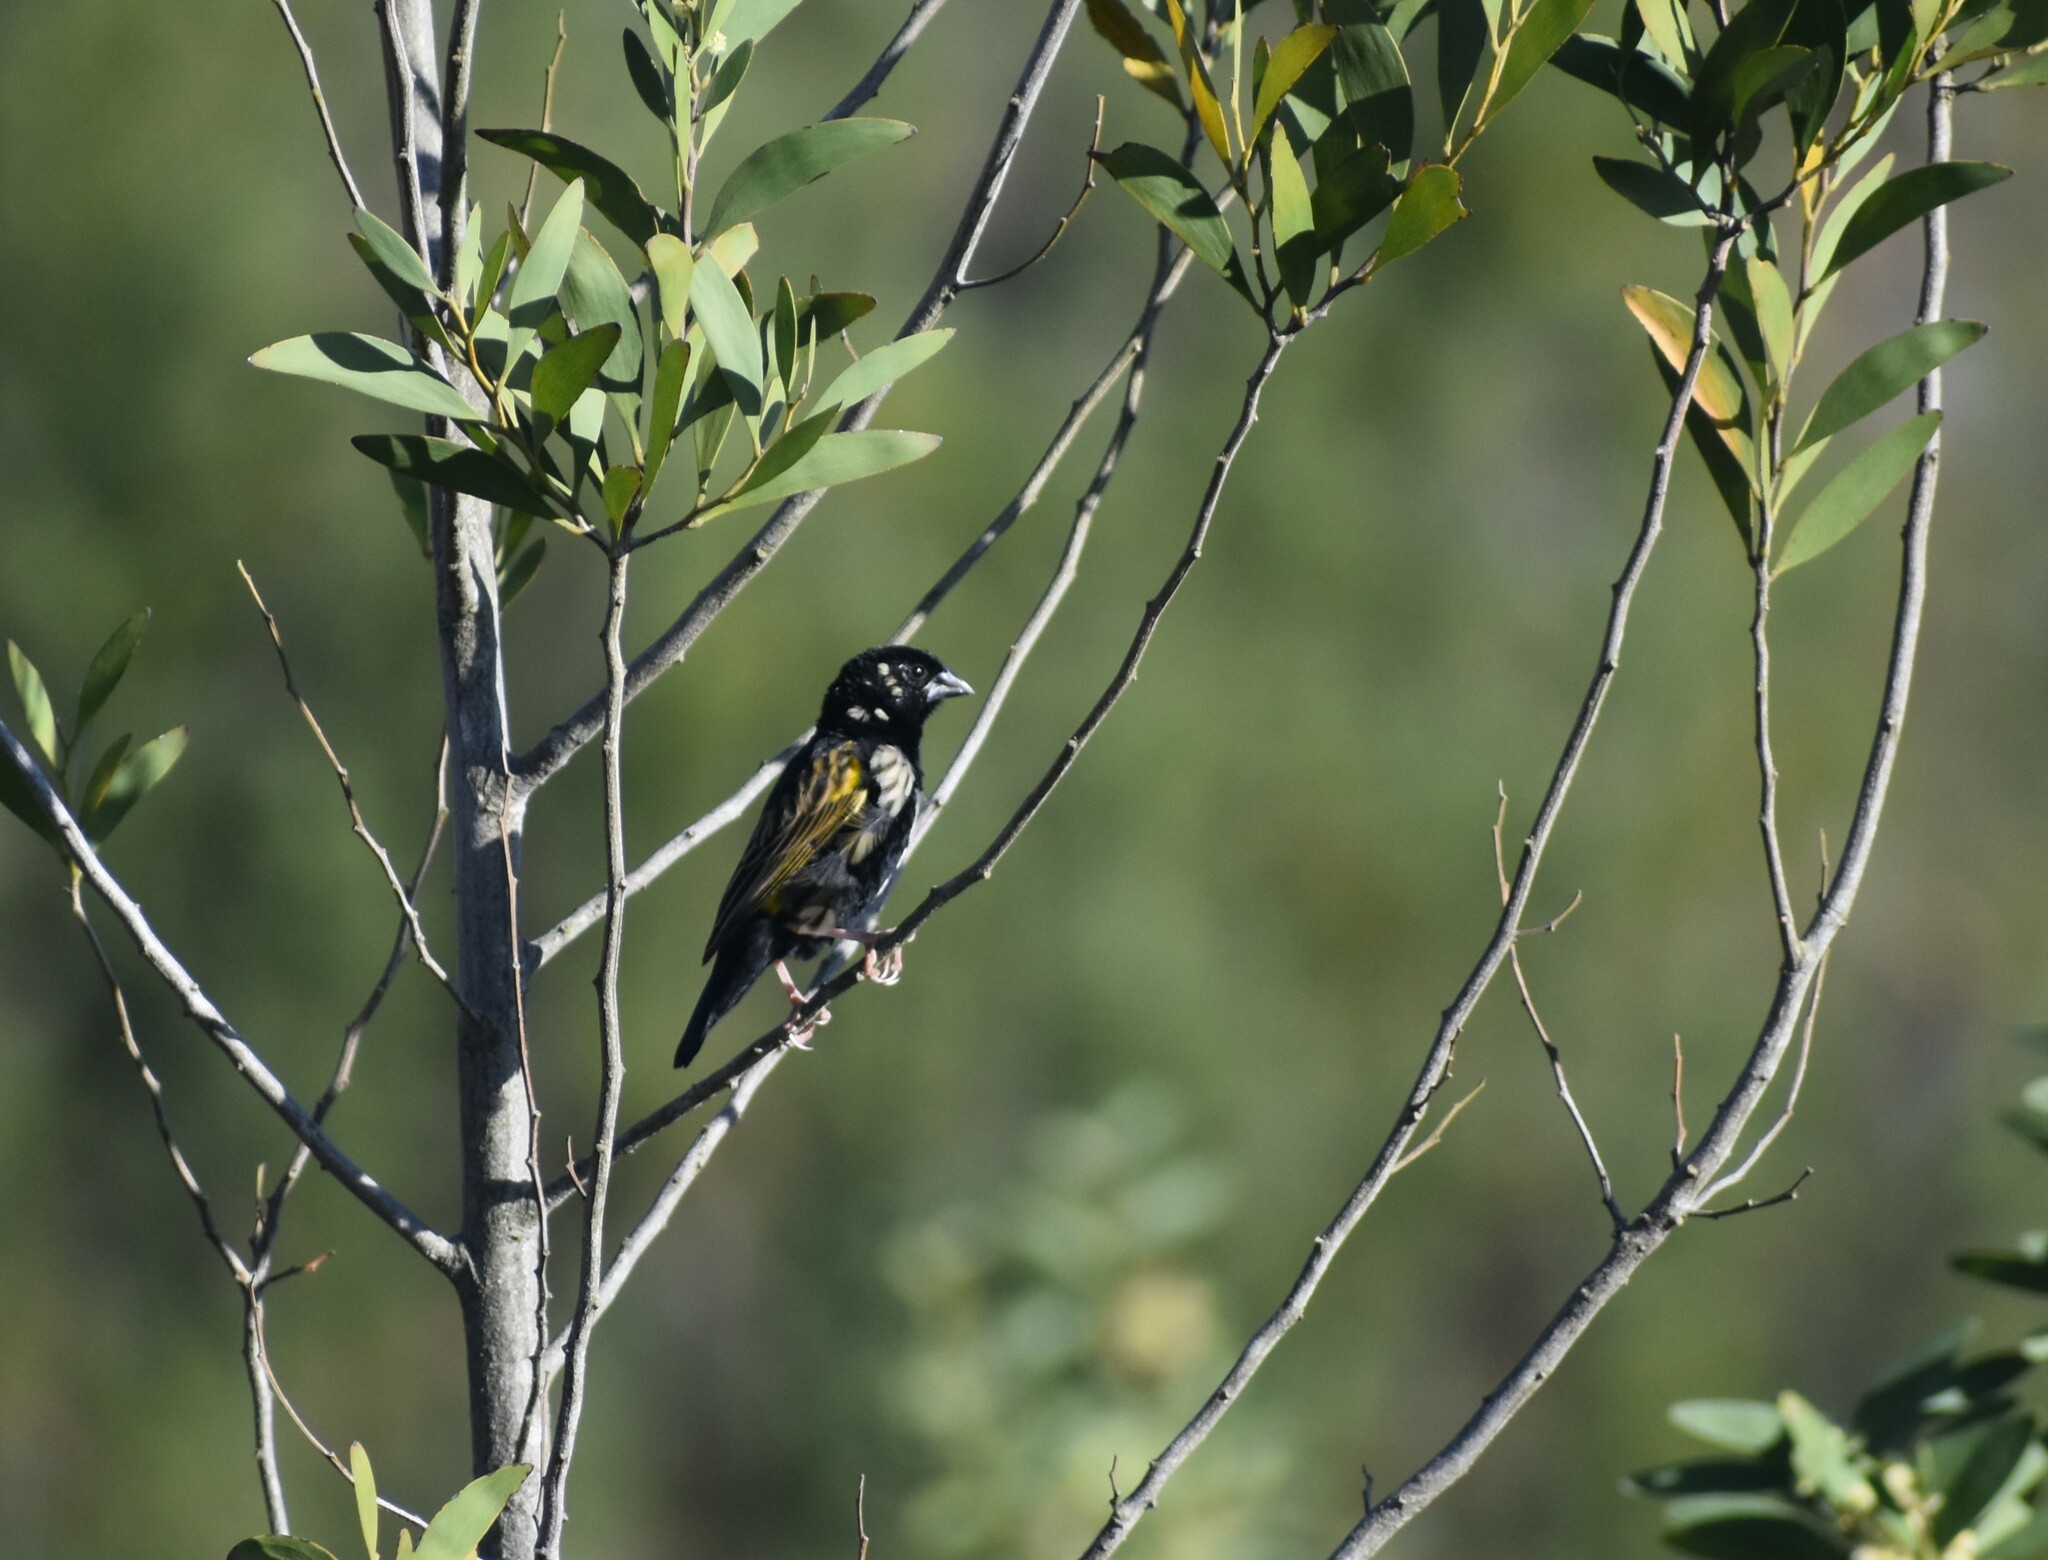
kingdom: Animalia
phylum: Chordata
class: Aves
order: Passeriformes
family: Ploceidae
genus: Euplectes
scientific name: Euplectes capensis
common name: Yellow bishop
